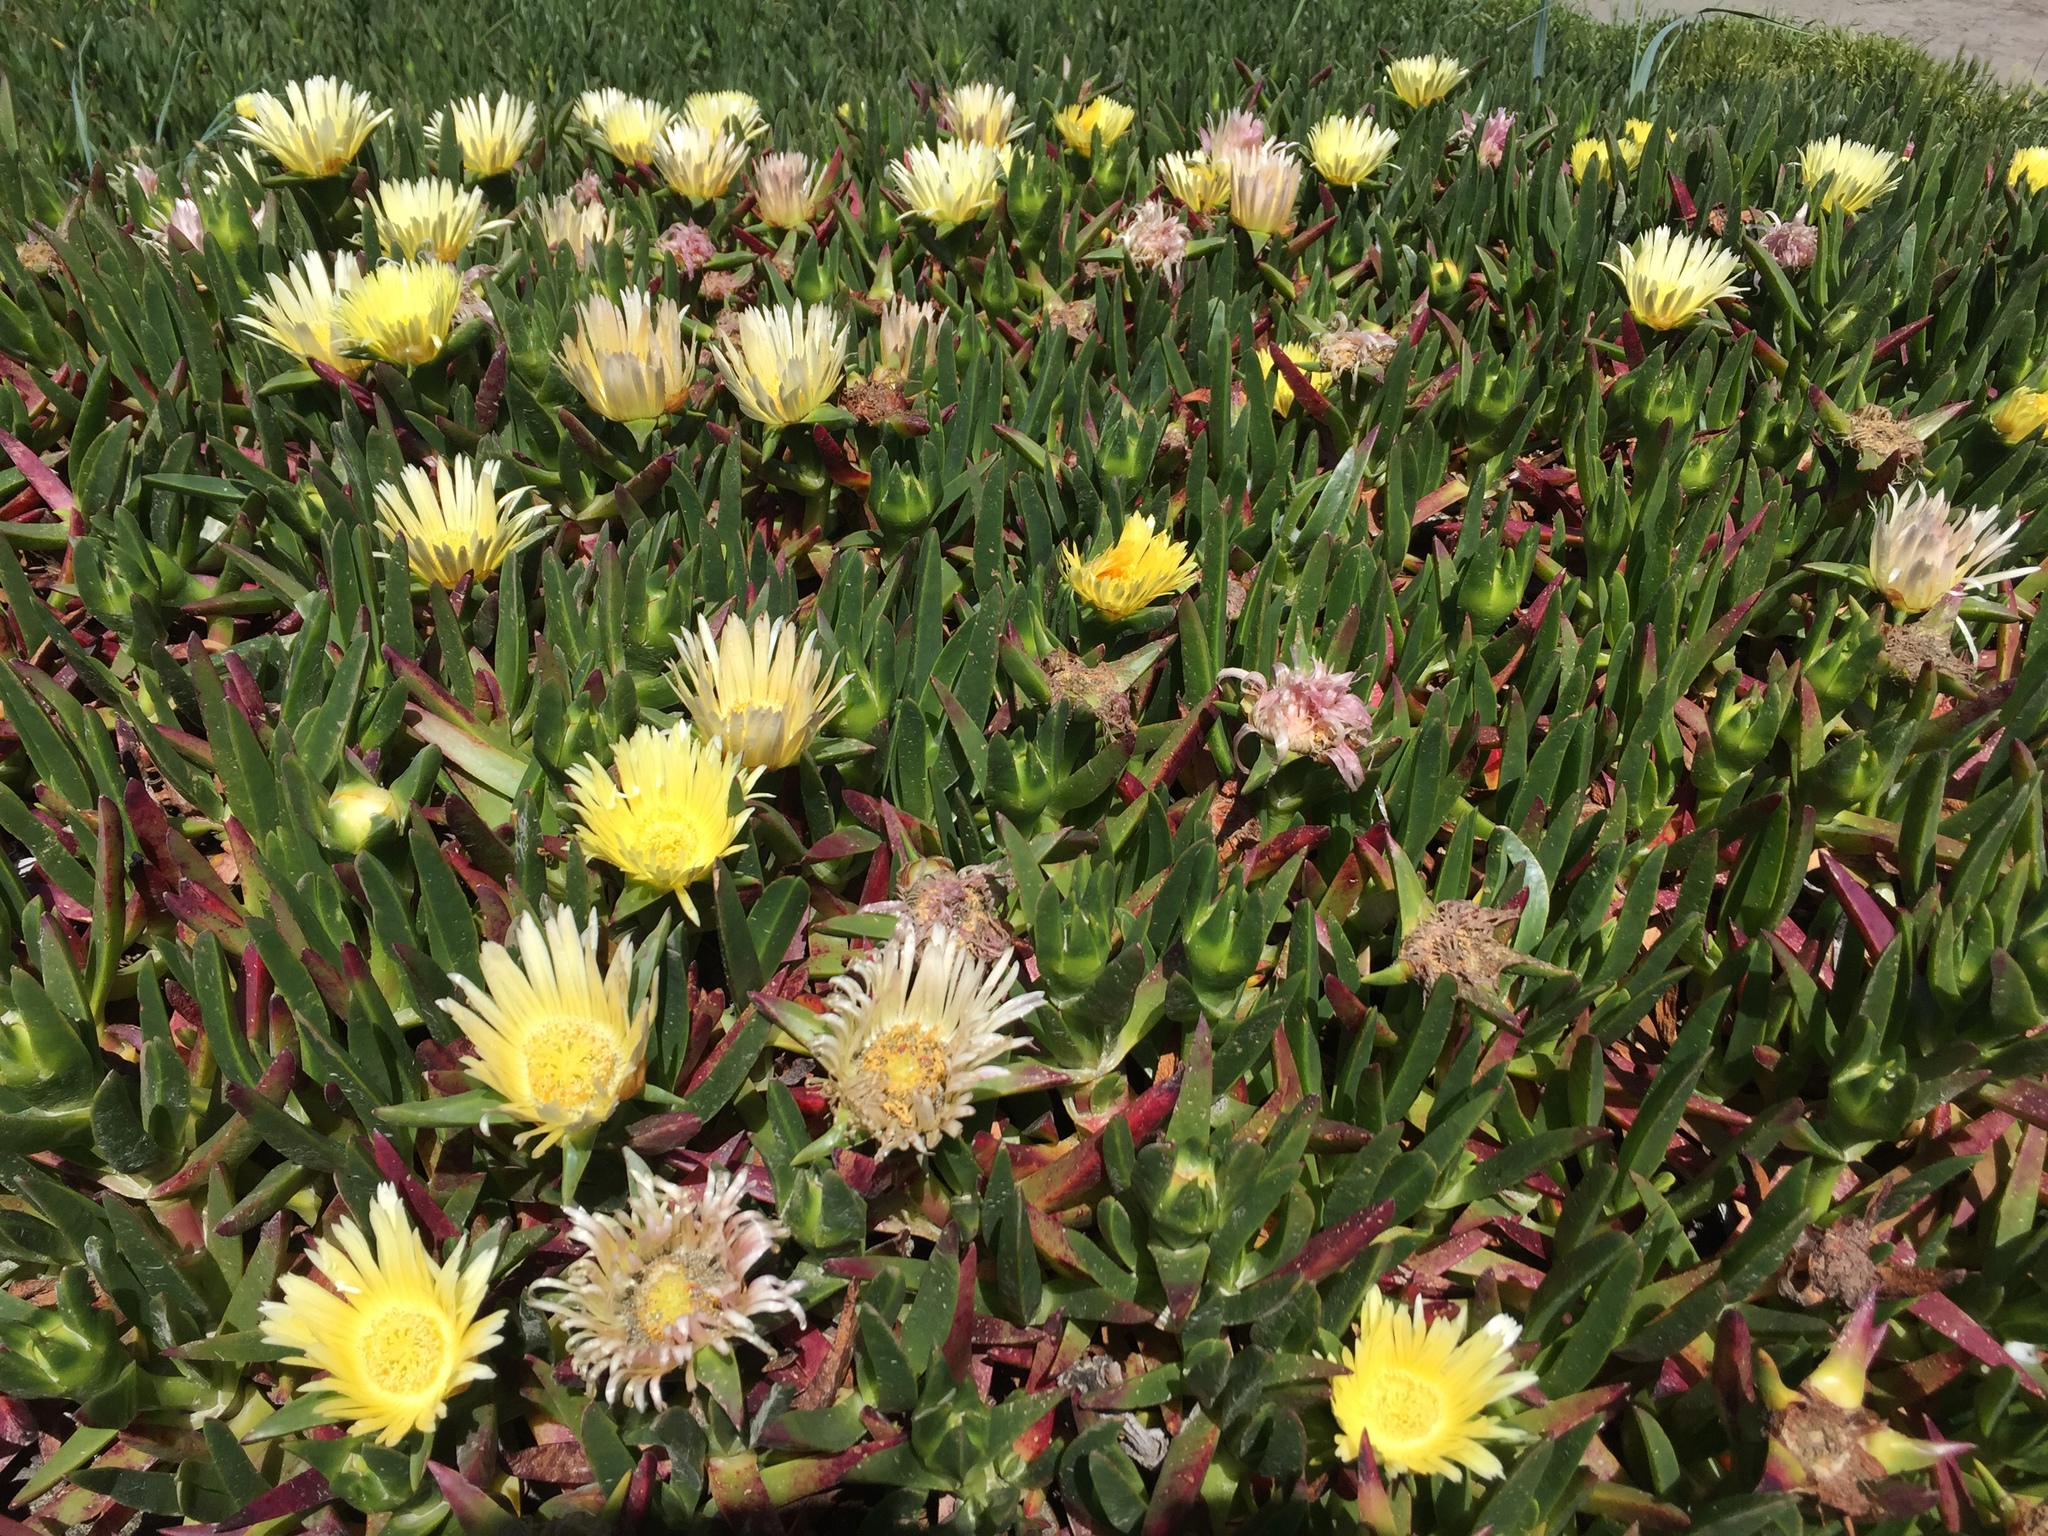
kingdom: Plantae
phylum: Tracheophyta
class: Magnoliopsida
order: Caryophyllales
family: Aizoaceae
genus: Carpobrotus
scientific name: Carpobrotus edulis
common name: Hottentot-fig
